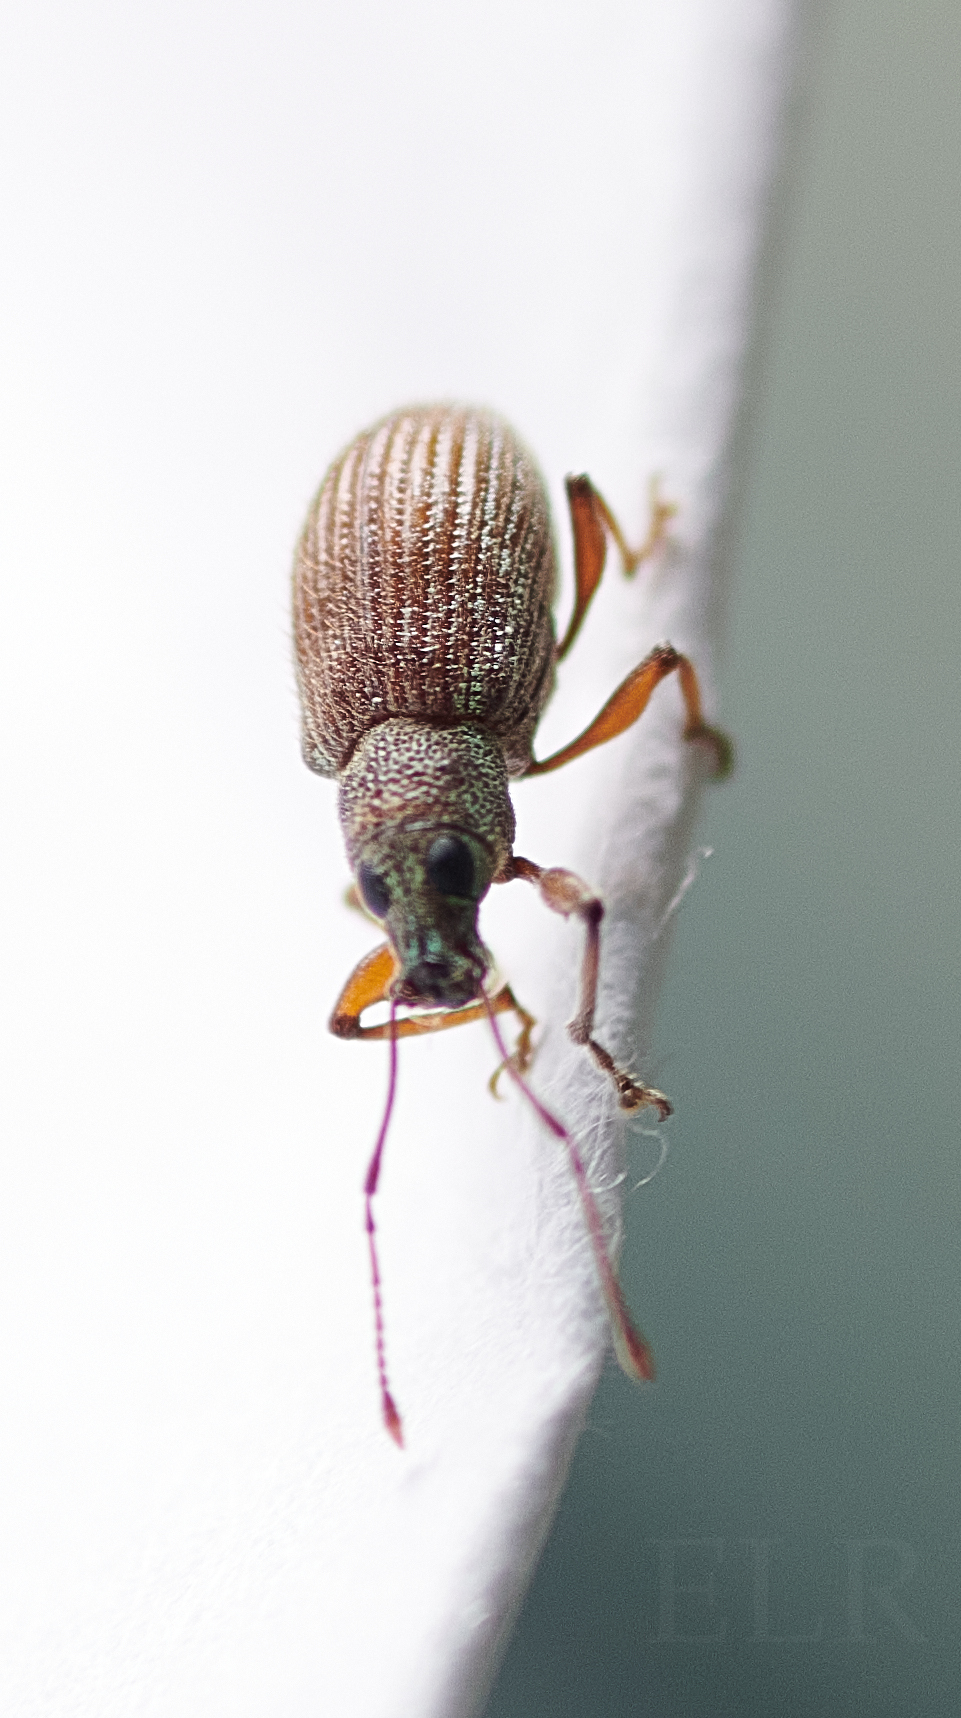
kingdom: Animalia
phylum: Arthropoda
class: Insecta
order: Coleoptera
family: Curculionidae
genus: Cyrtepistomus
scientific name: Cyrtepistomus castaneus
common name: Weevil
